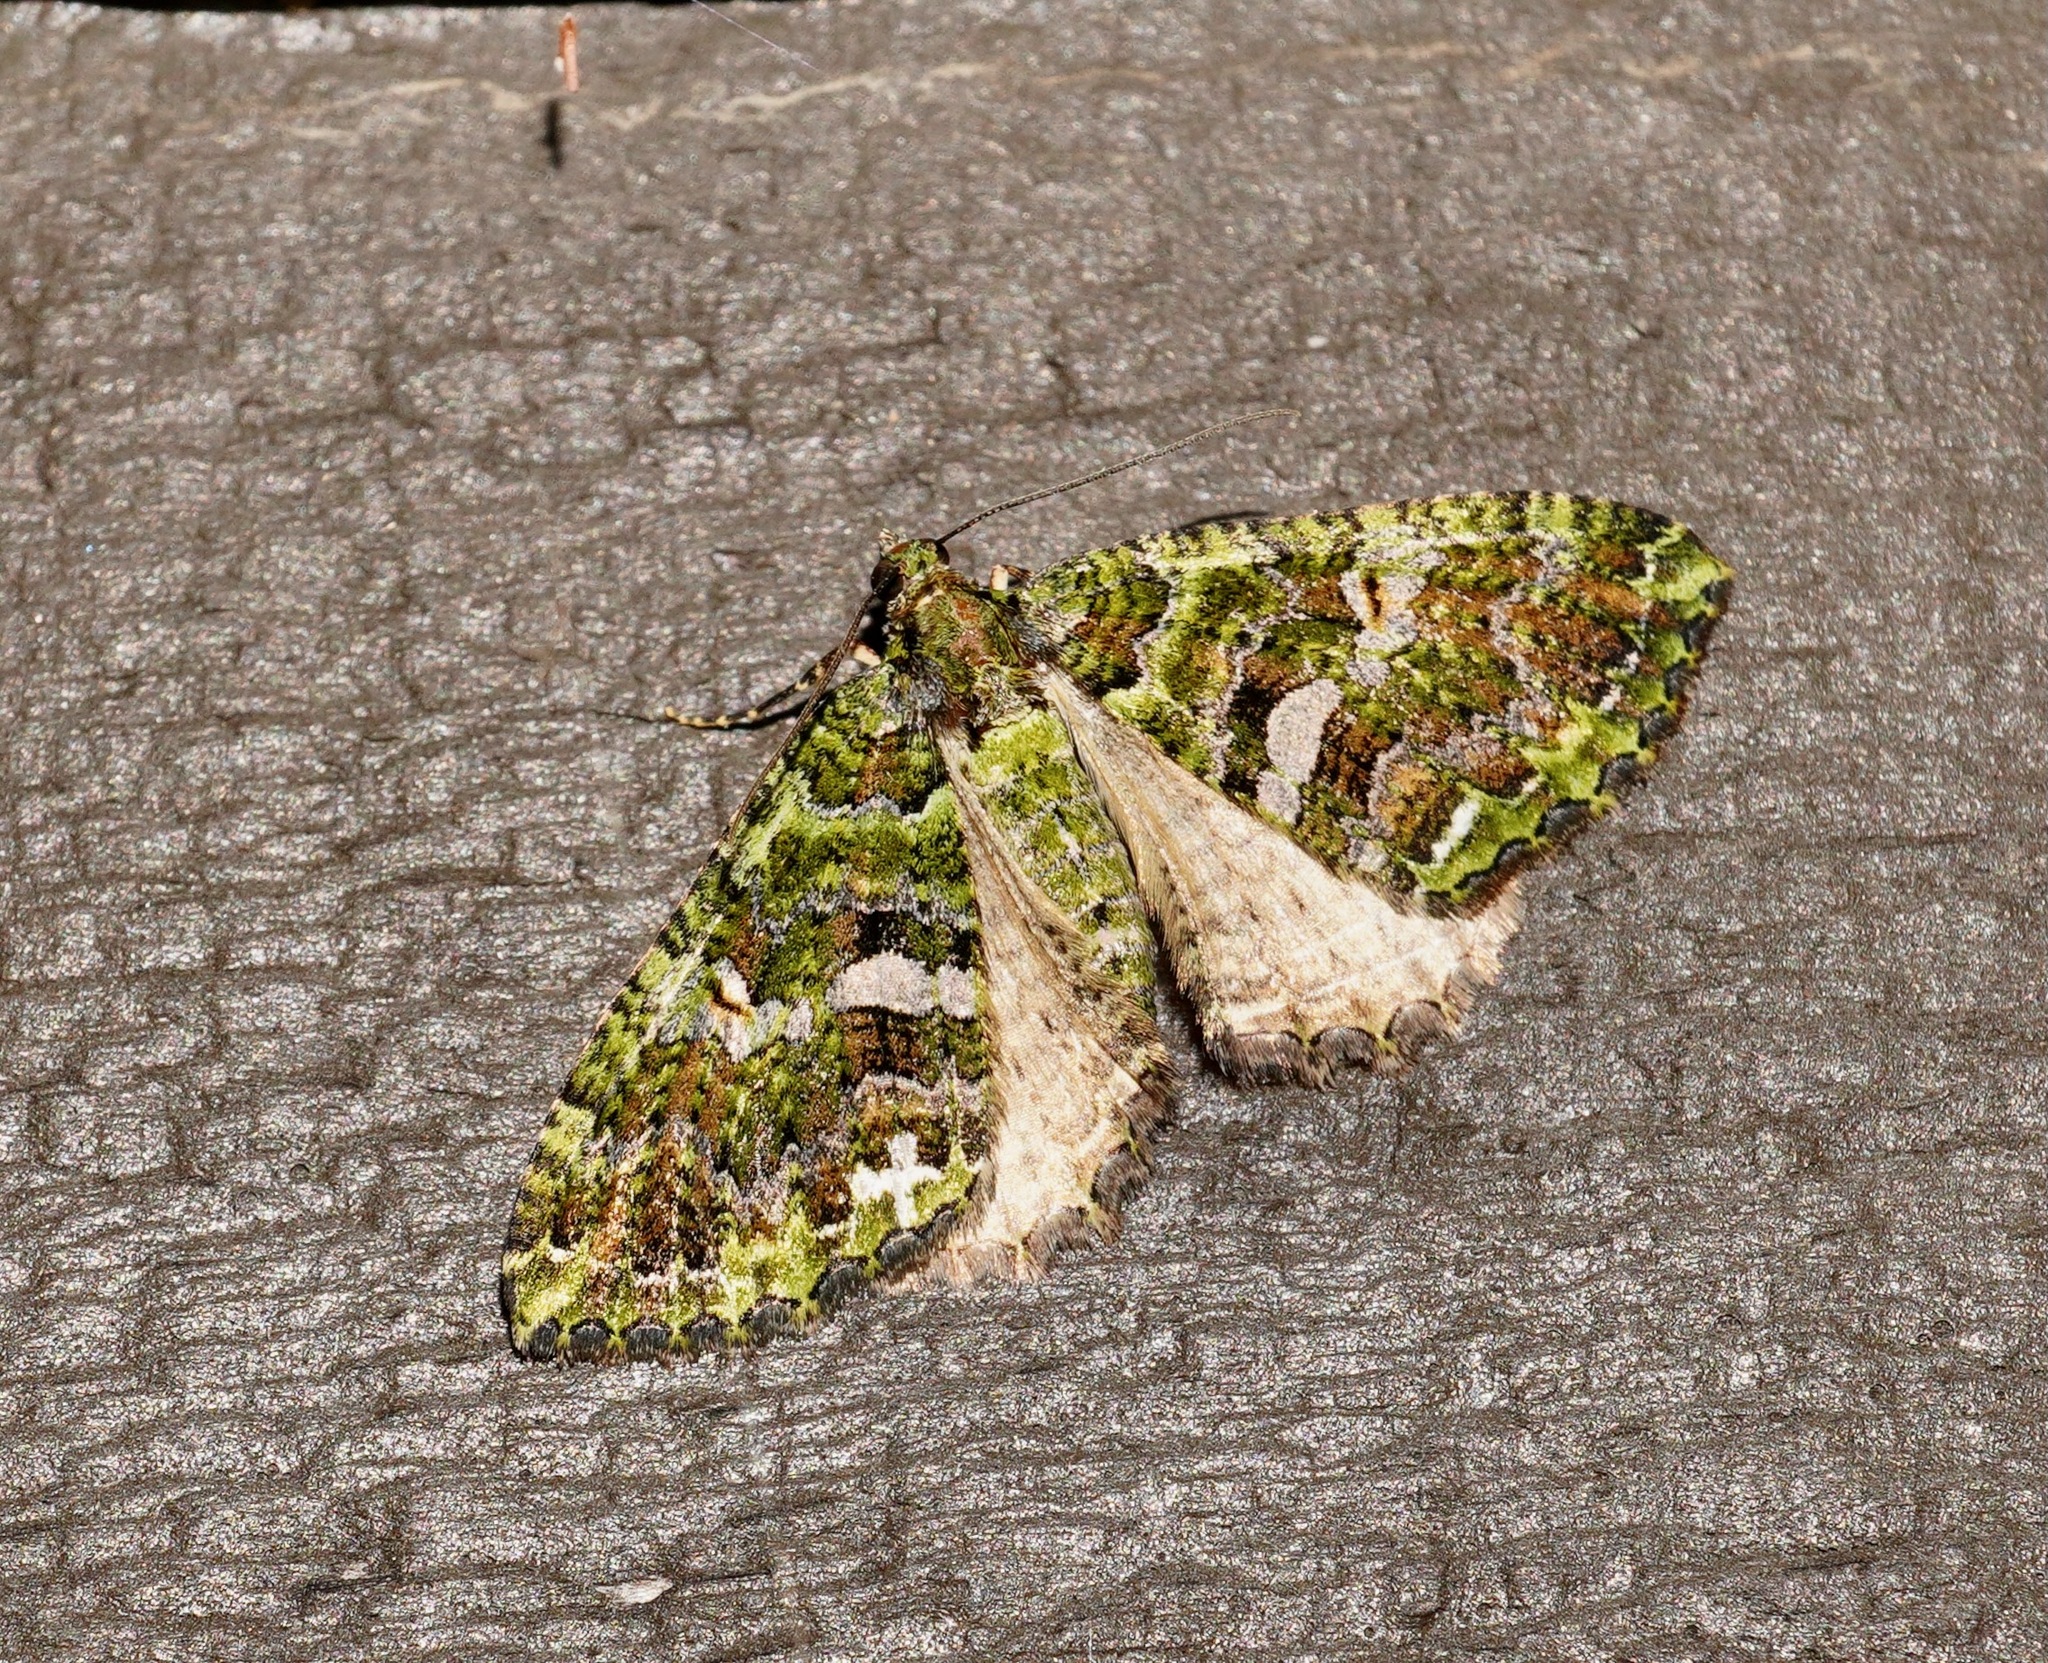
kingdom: Animalia
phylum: Arthropoda
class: Insecta
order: Lepidoptera
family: Geometridae
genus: Austrocidaria
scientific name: Austrocidaria similata
